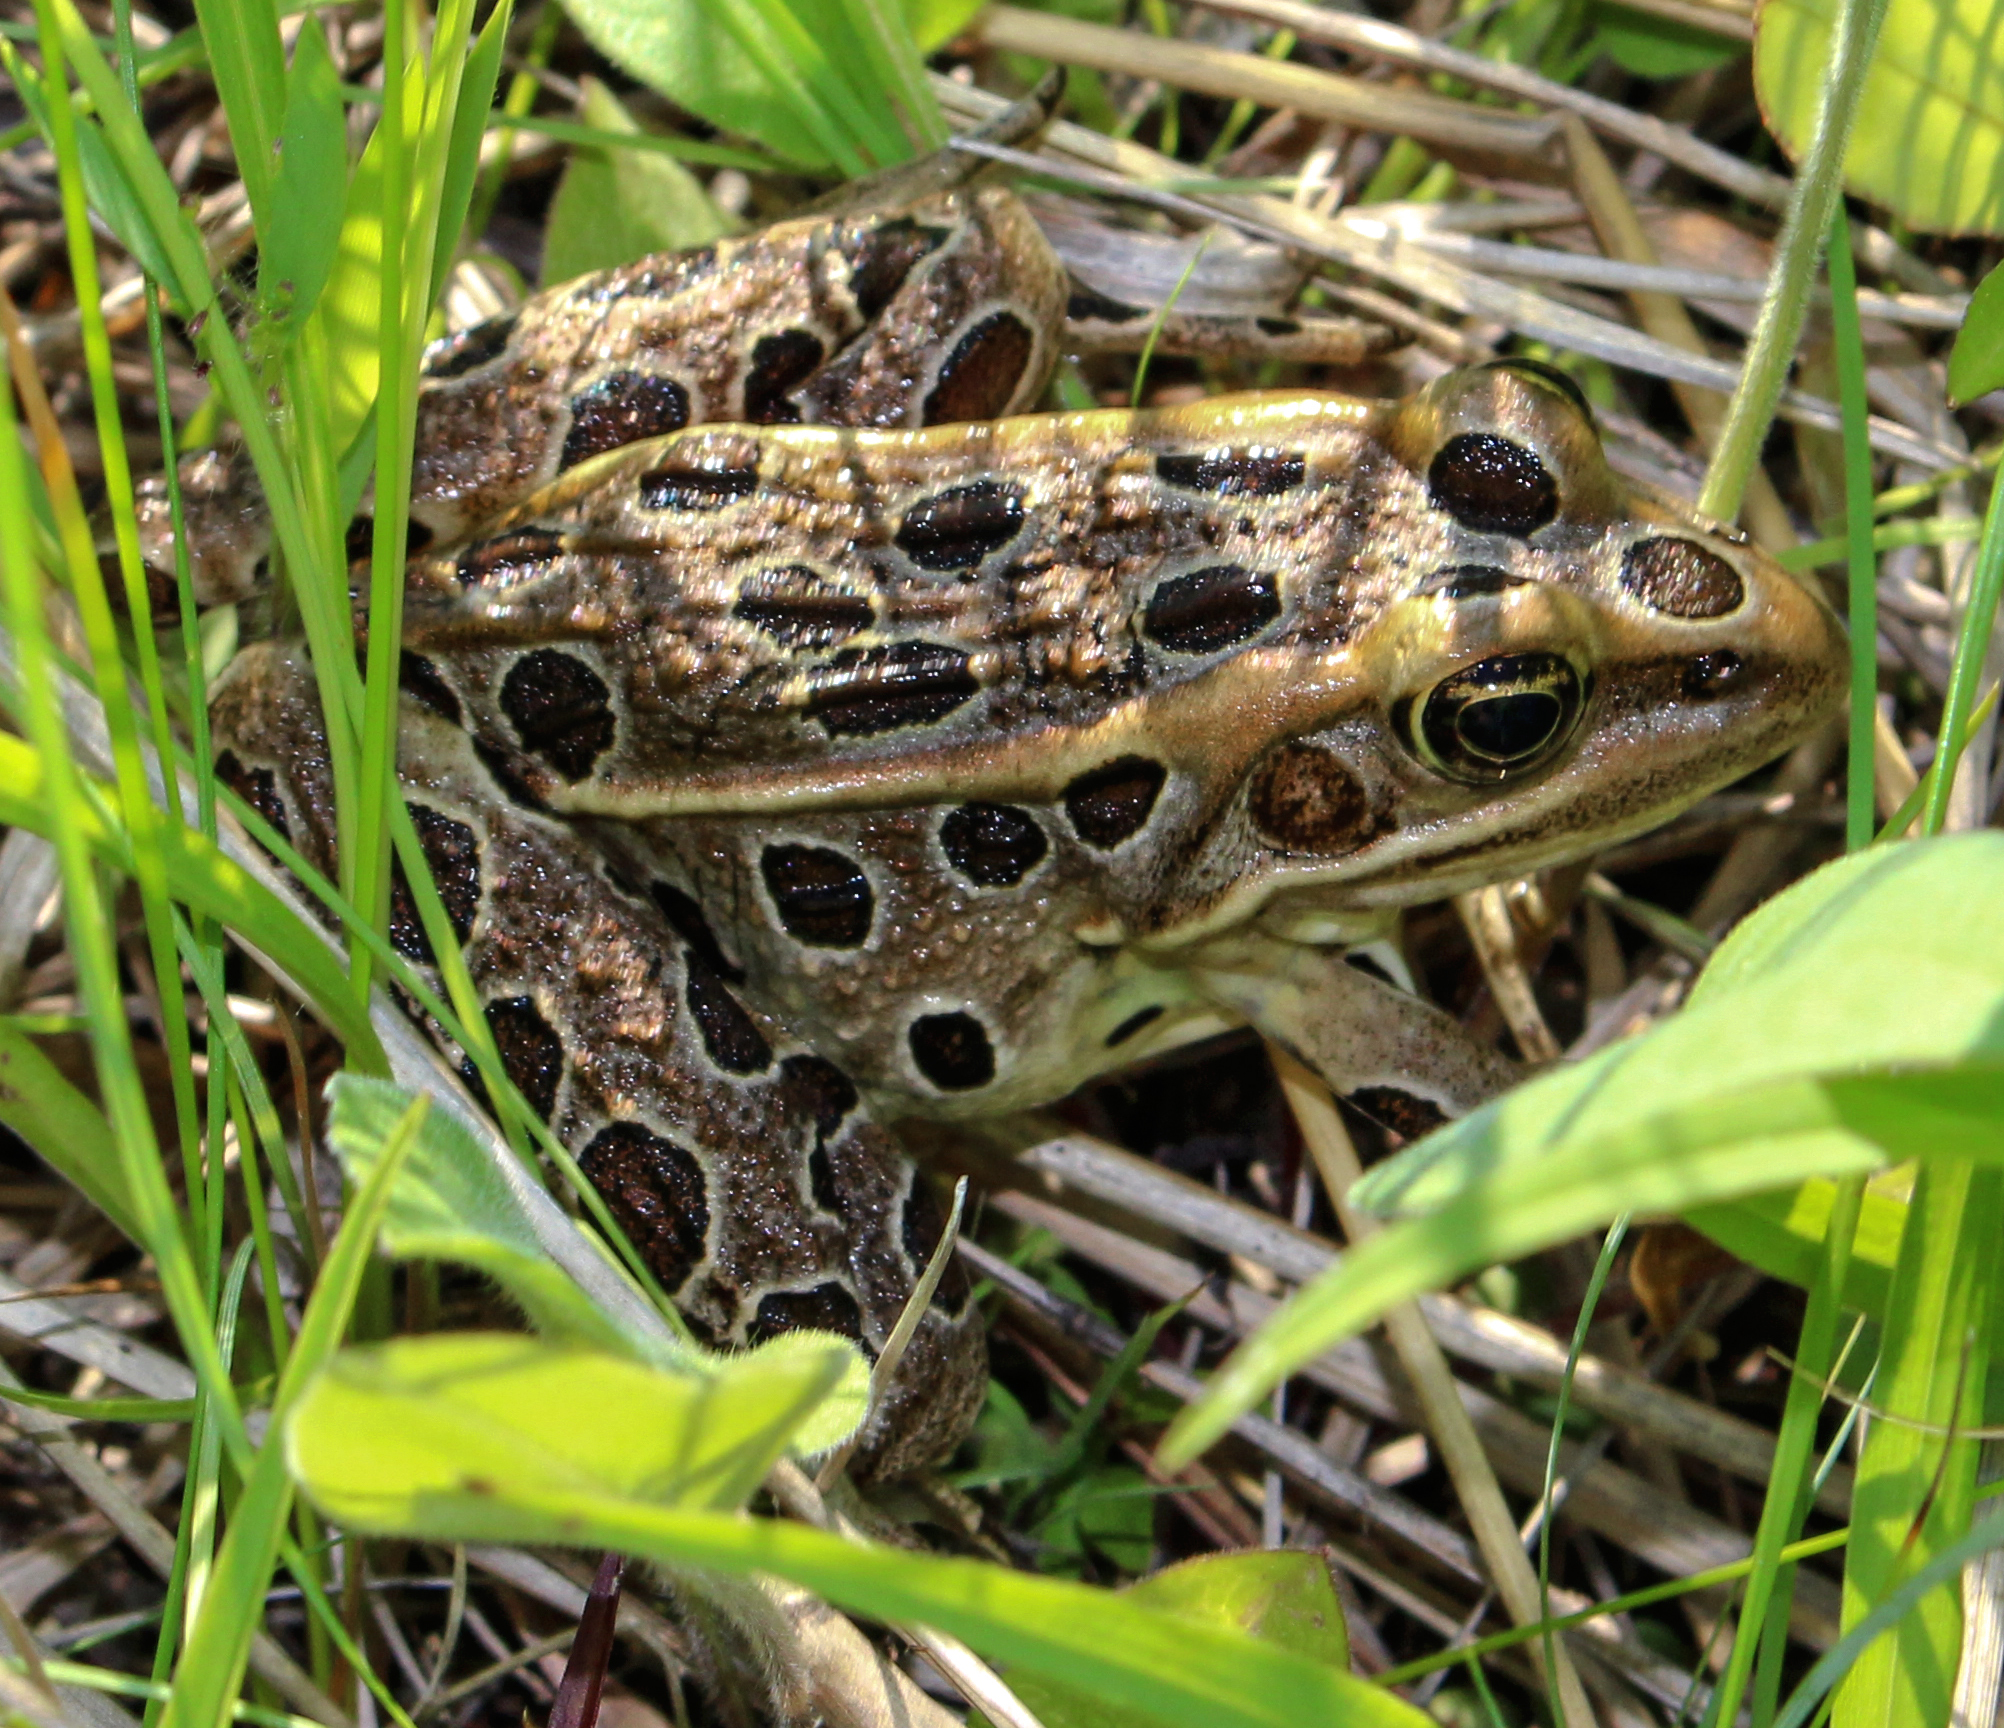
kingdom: Animalia
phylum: Chordata
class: Amphibia
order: Anura
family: Ranidae
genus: Lithobates
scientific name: Lithobates pipiens
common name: Northern leopard frog
